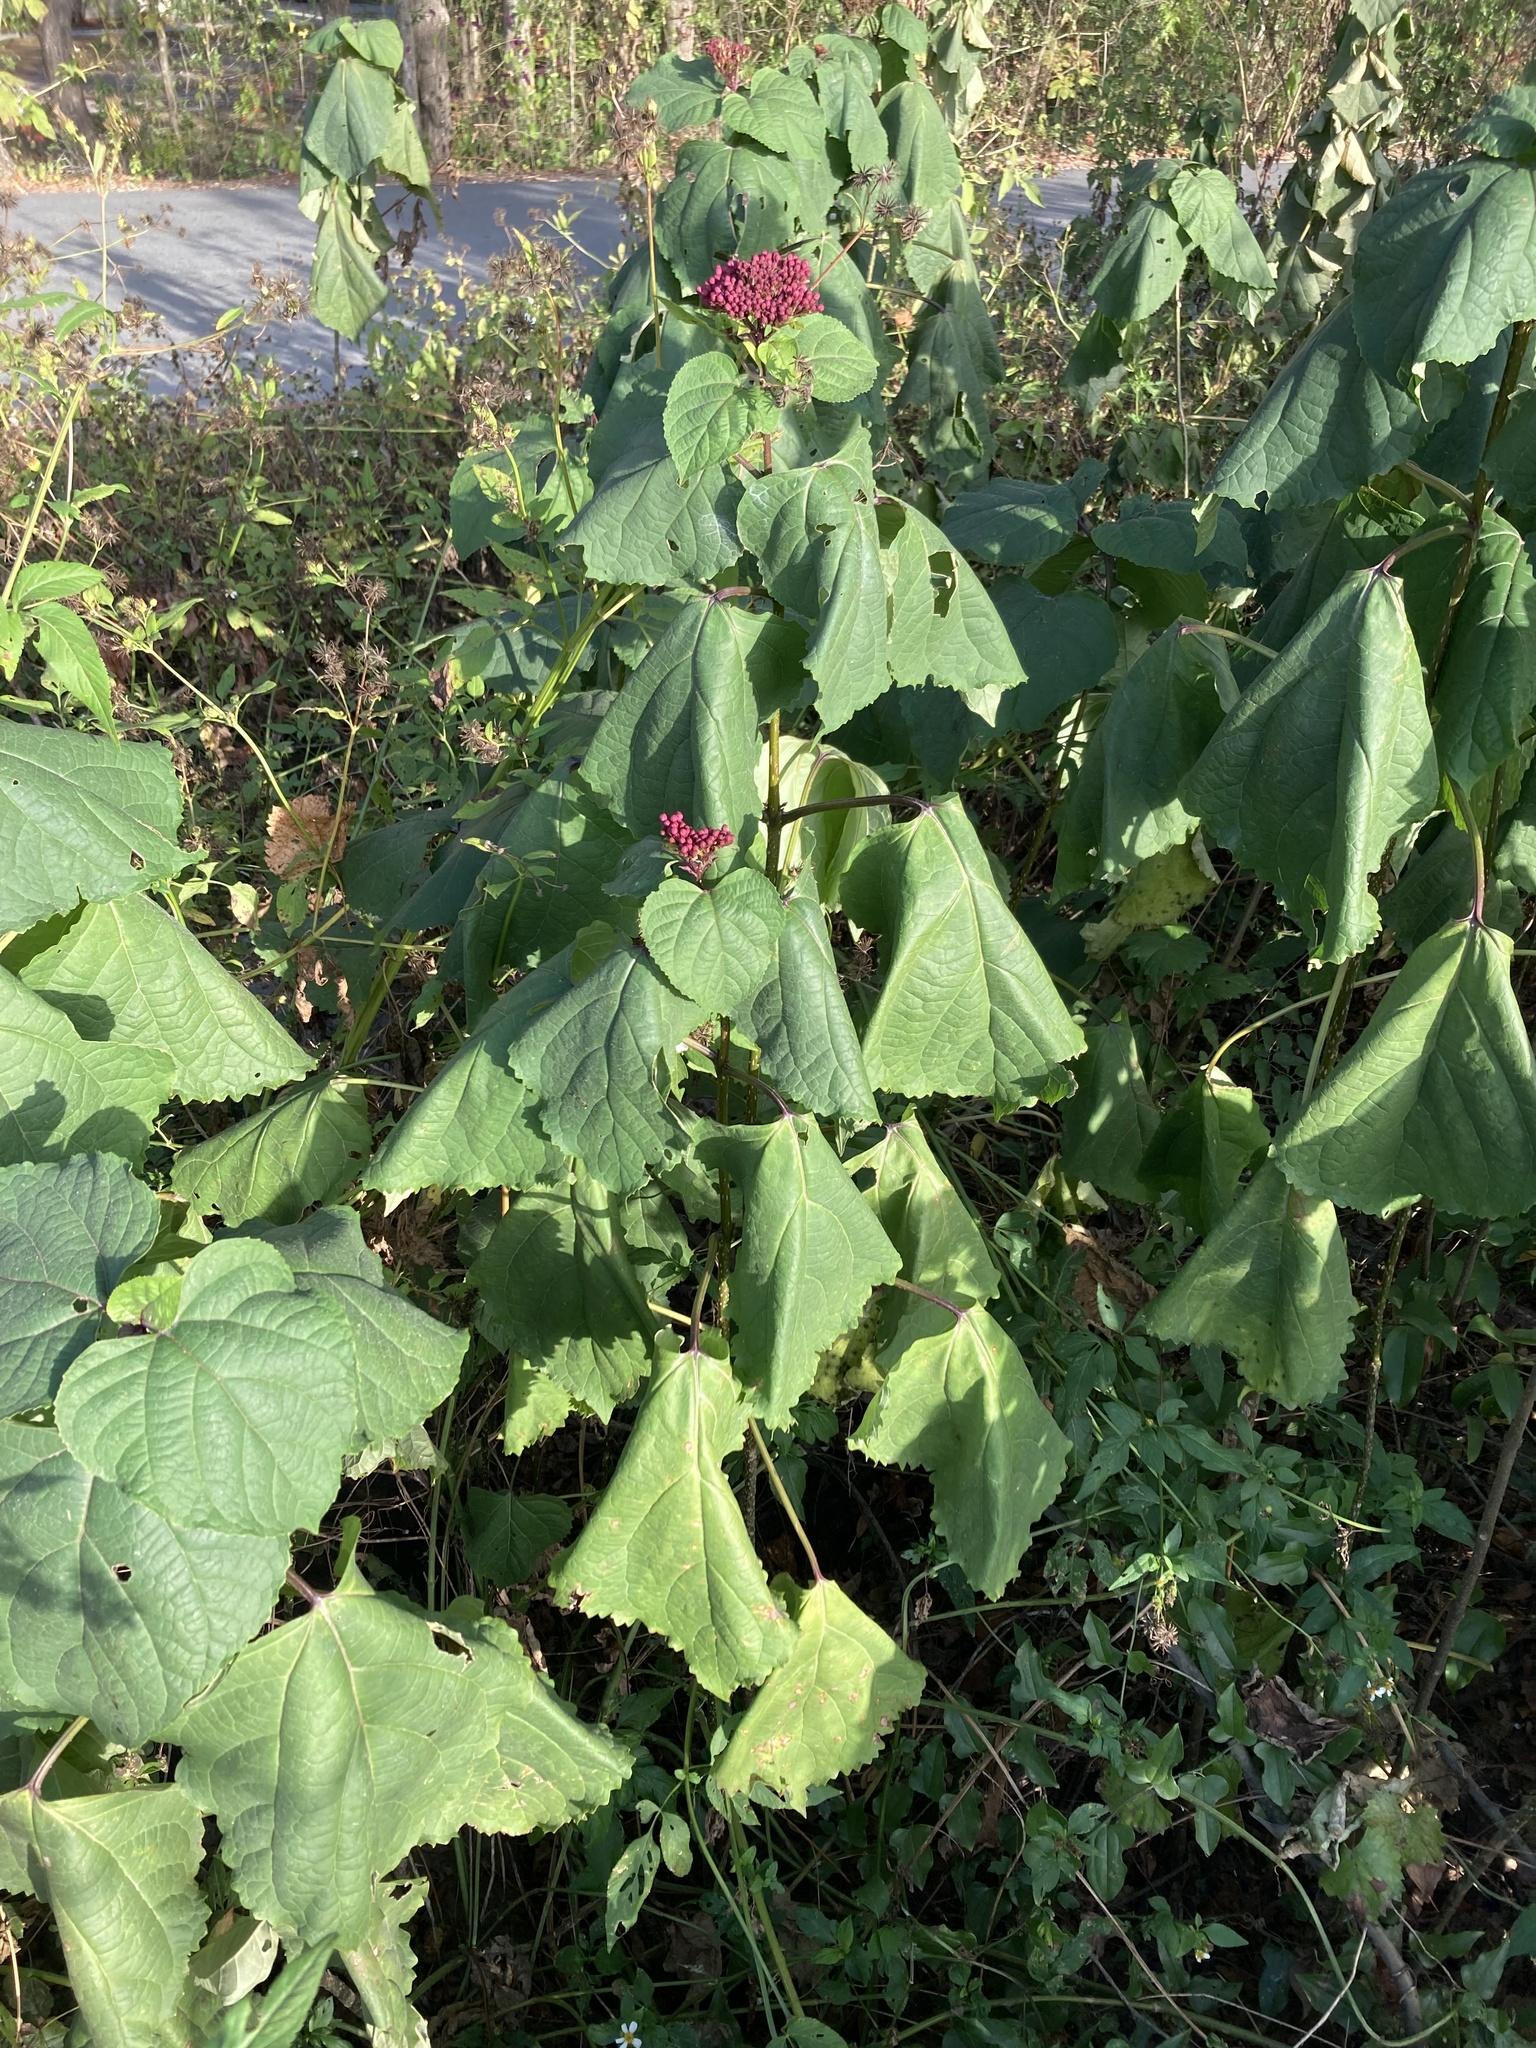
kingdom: Plantae
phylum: Tracheophyta
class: Magnoliopsida
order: Lamiales
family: Lamiaceae
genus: Clerodendrum
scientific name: Clerodendrum bungei
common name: Rose glorybower
